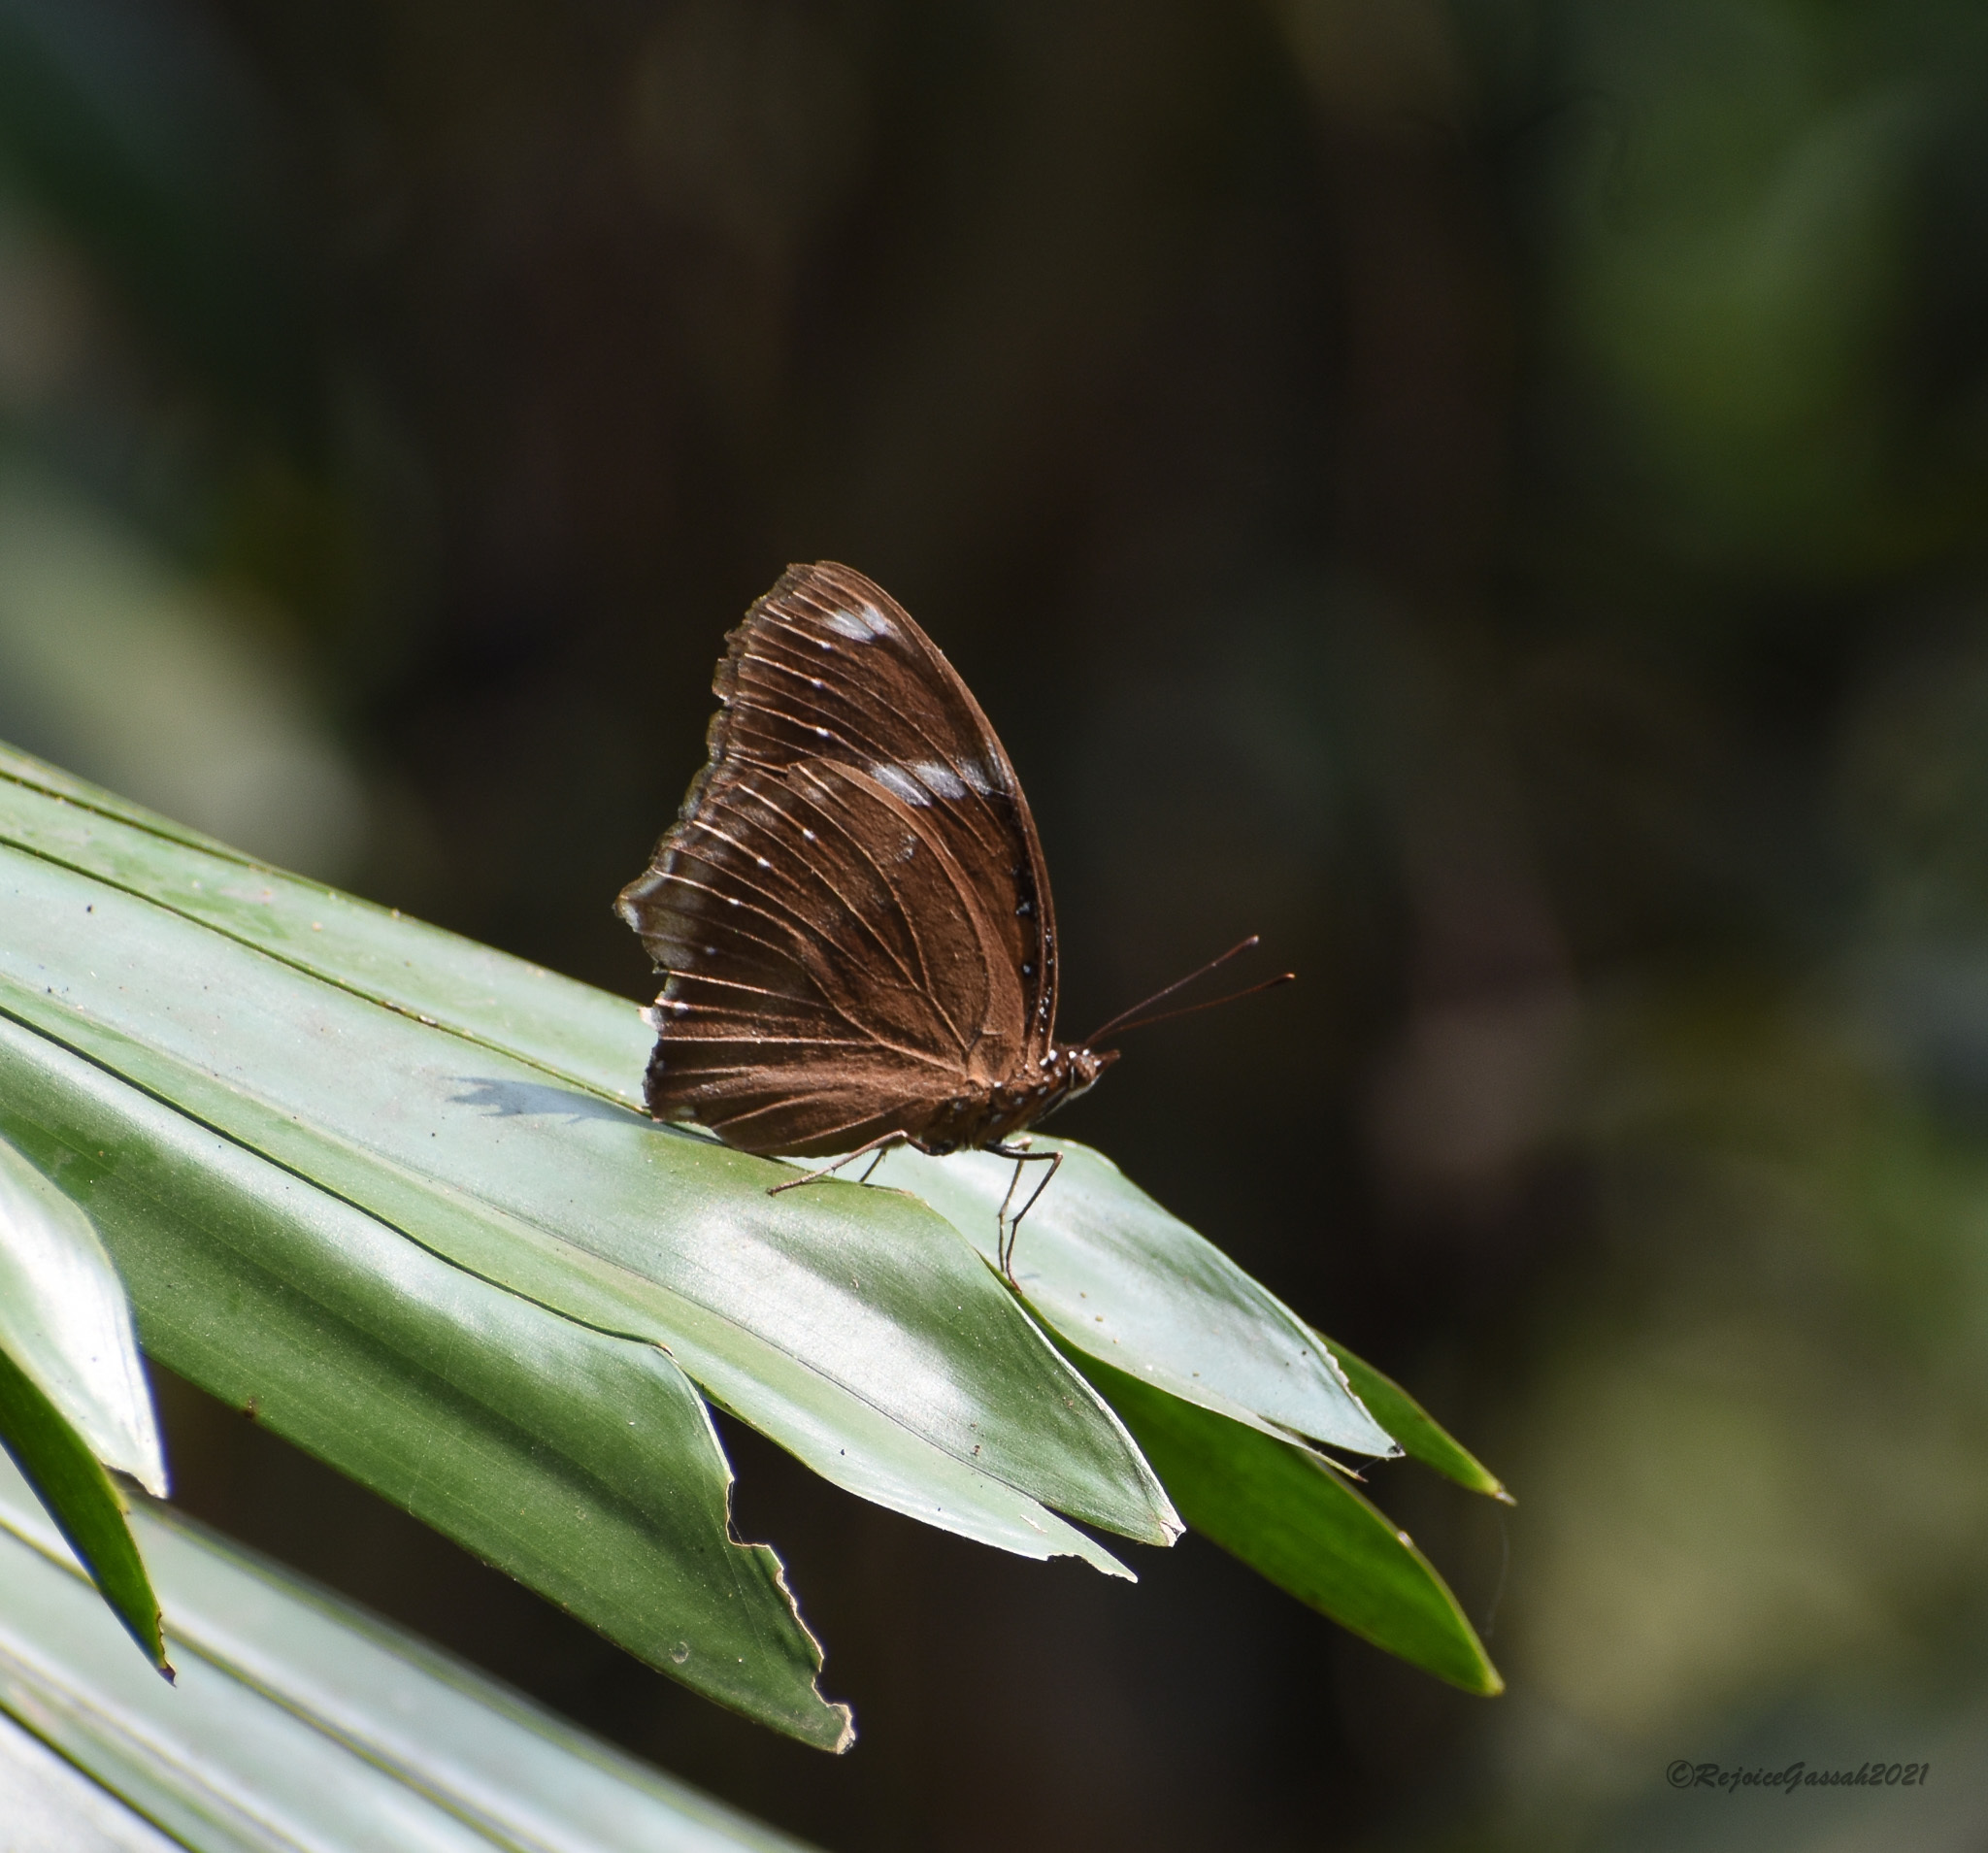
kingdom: Animalia
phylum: Arthropoda
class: Insecta
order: Lepidoptera
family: Nymphalidae
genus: Hypolimnas
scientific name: Hypolimnas bolina
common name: Great eggfly
